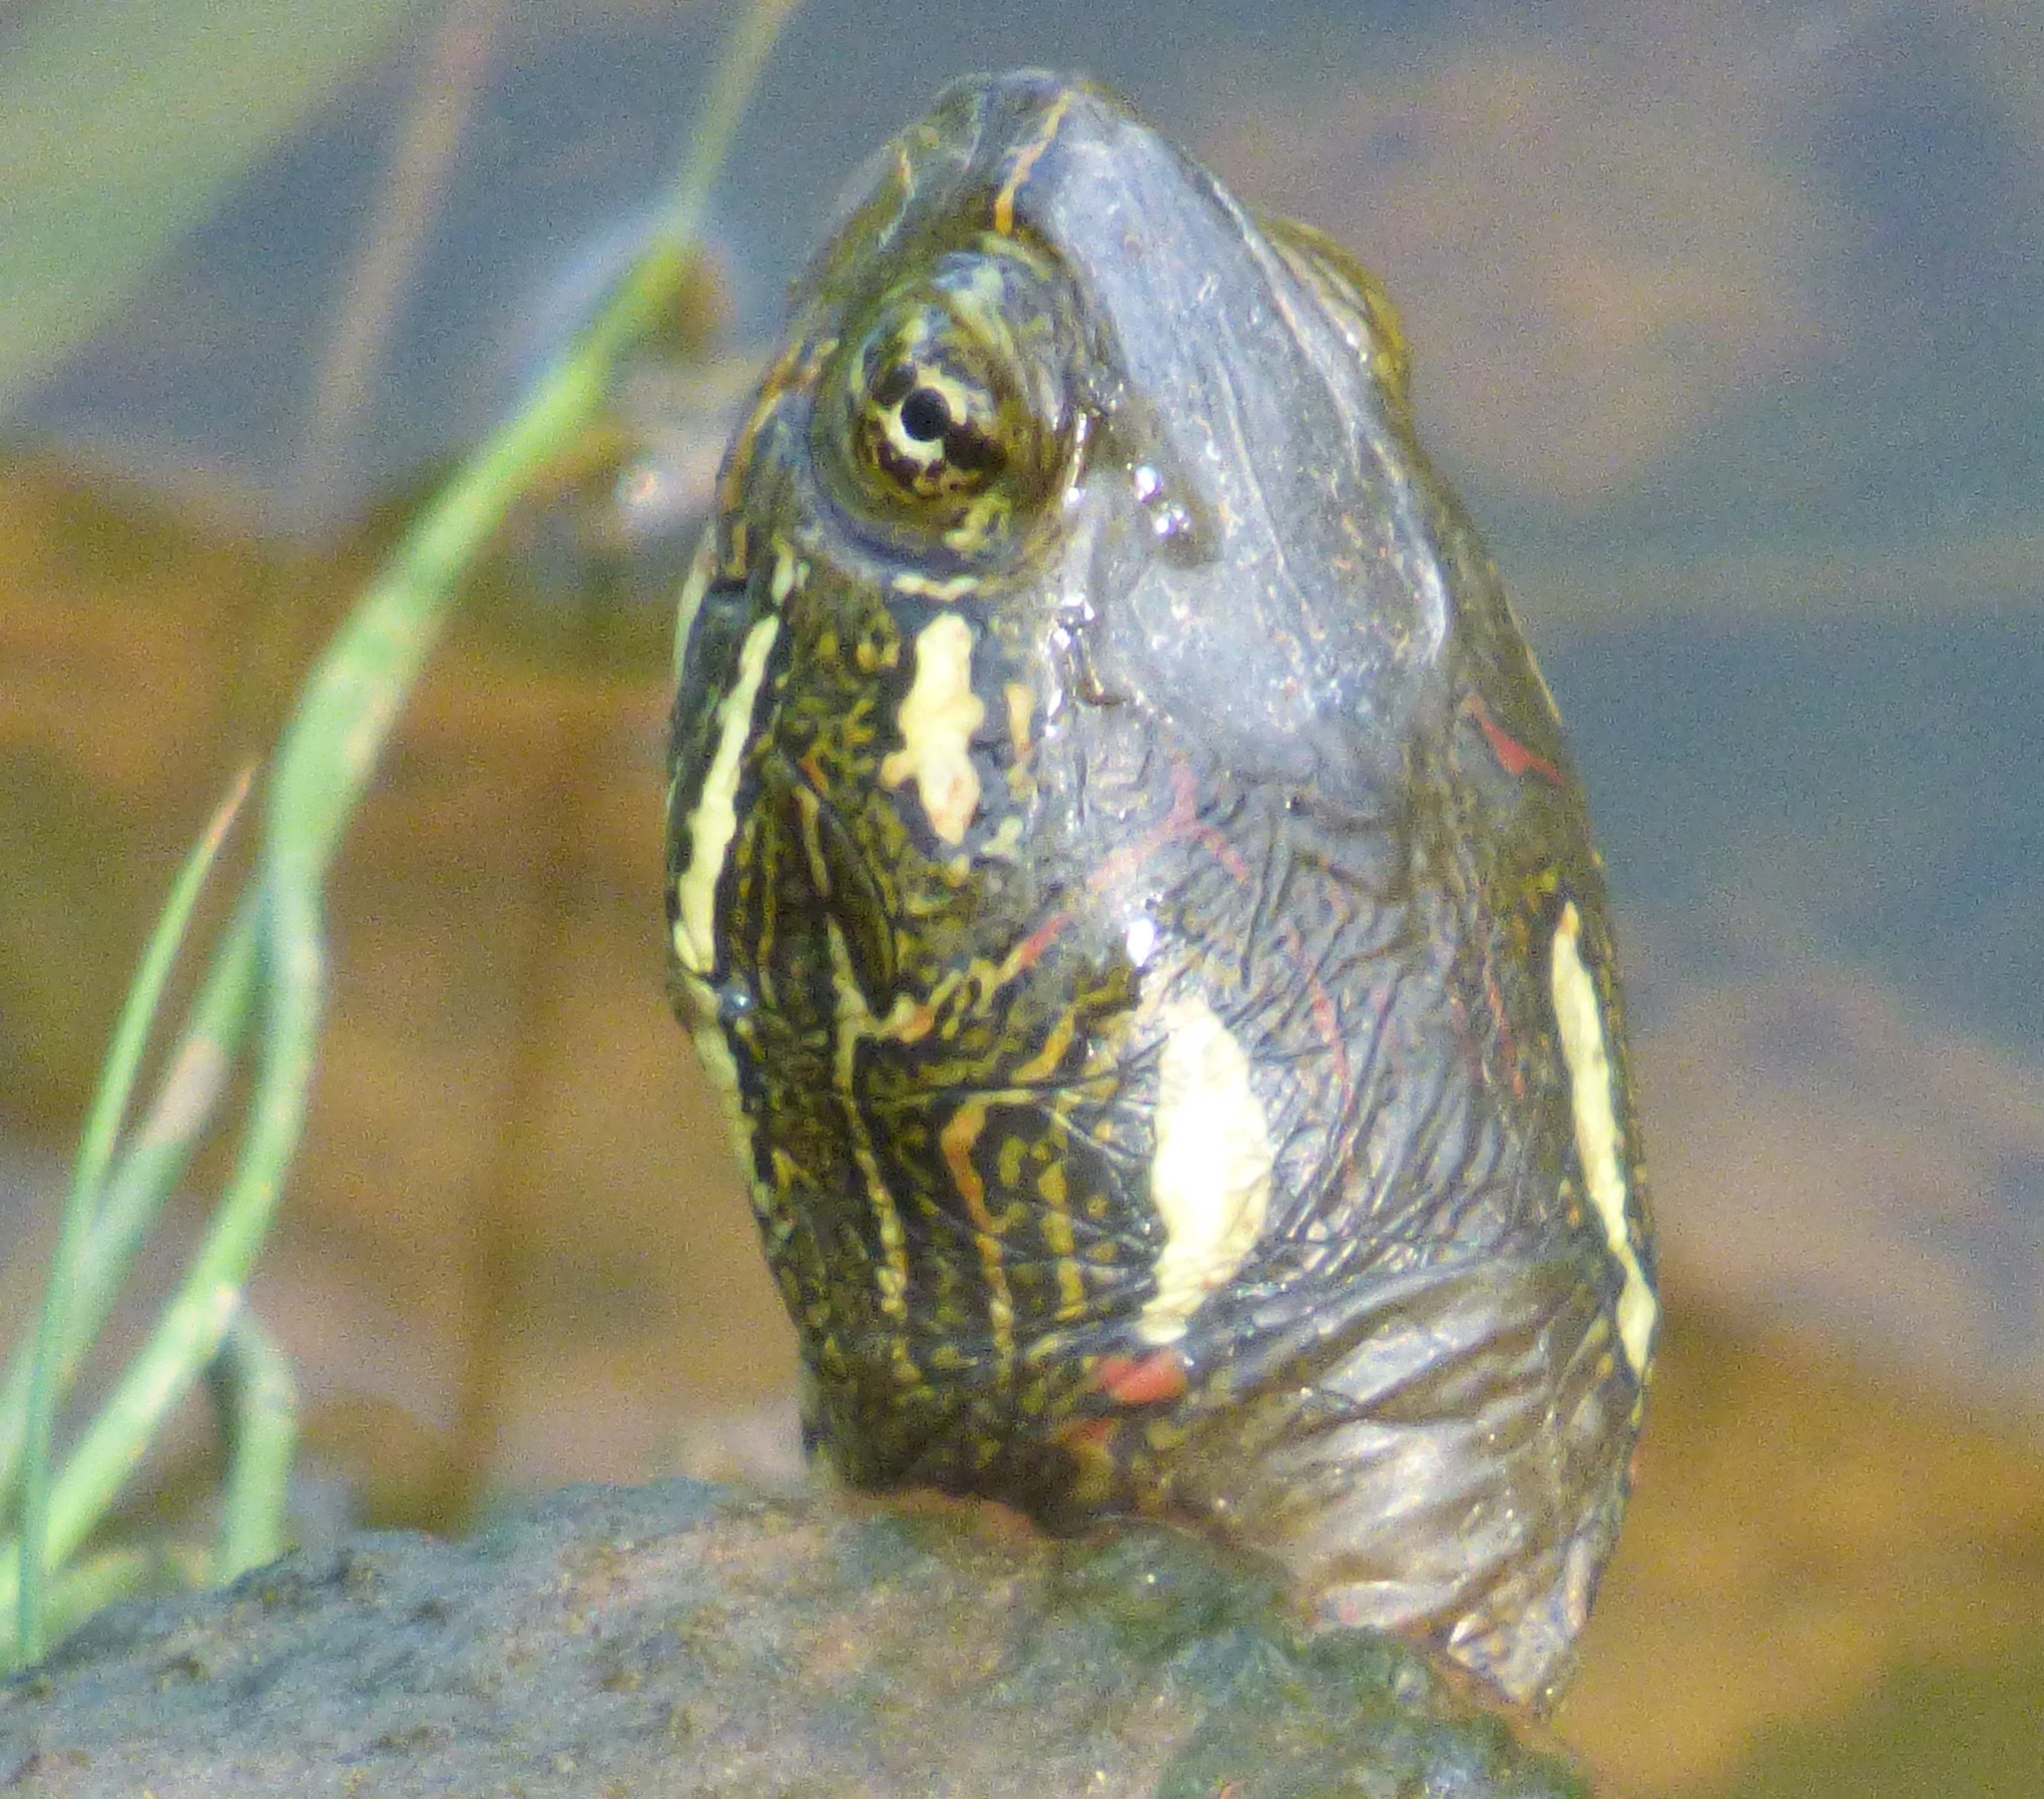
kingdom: Animalia
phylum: Chordata
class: Testudines
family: Emydidae
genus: Chrysemys
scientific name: Chrysemys picta
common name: Painted turtle
